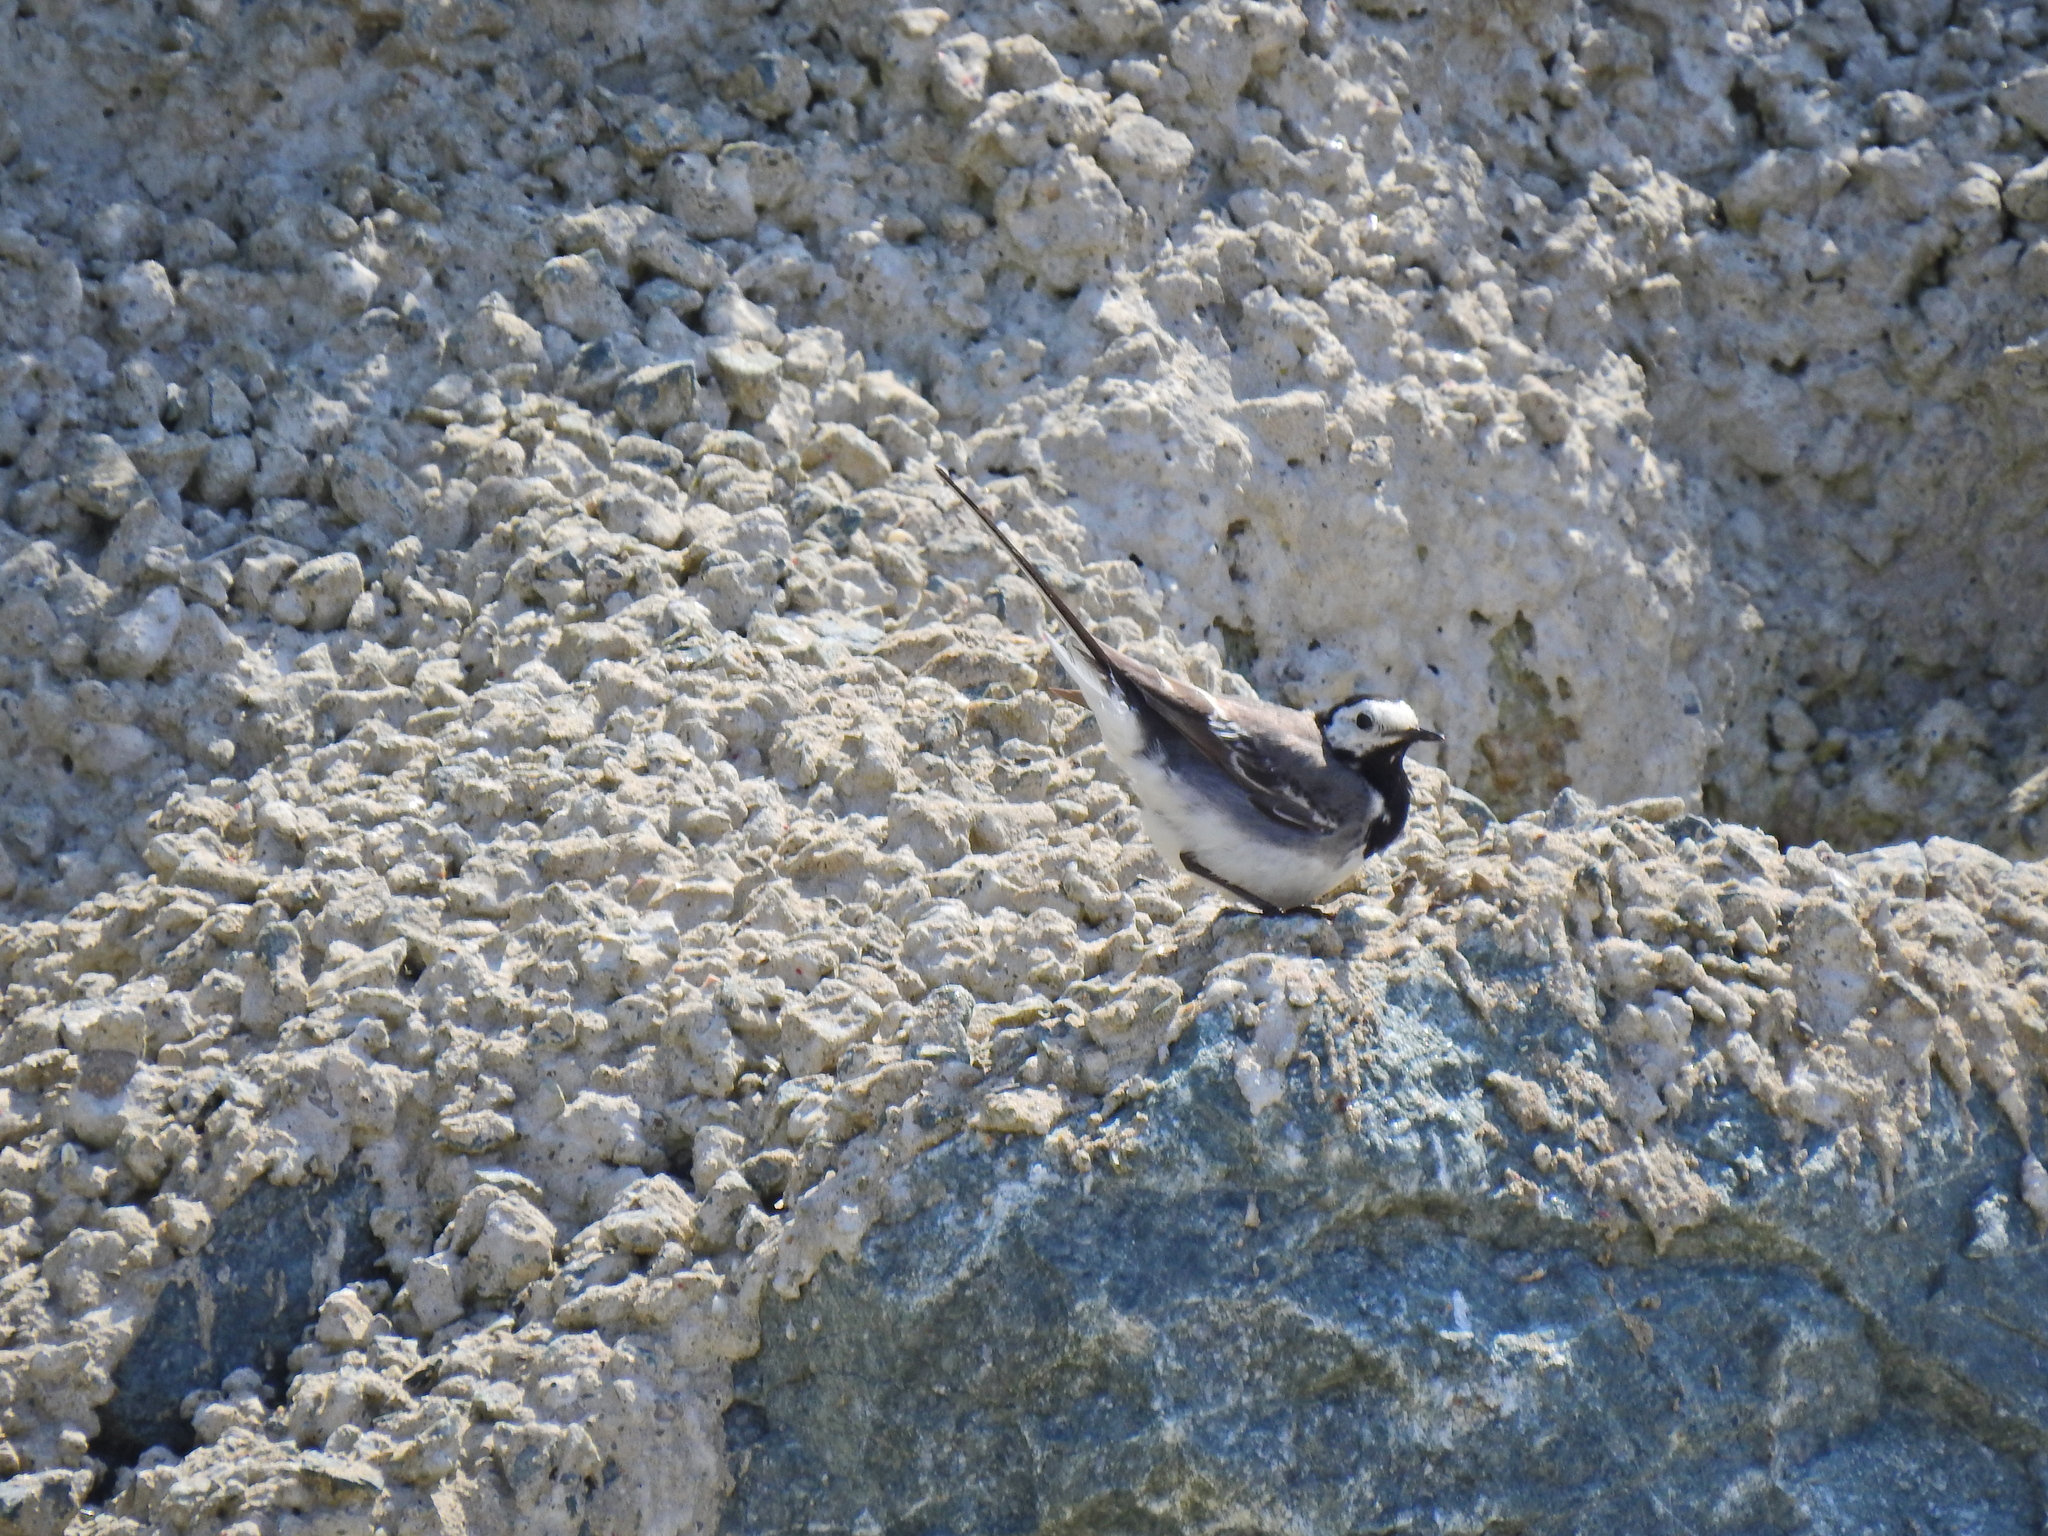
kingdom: Animalia
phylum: Chordata
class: Aves
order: Passeriformes
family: Motacillidae
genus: Motacilla
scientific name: Motacilla alba
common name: White wagtail
